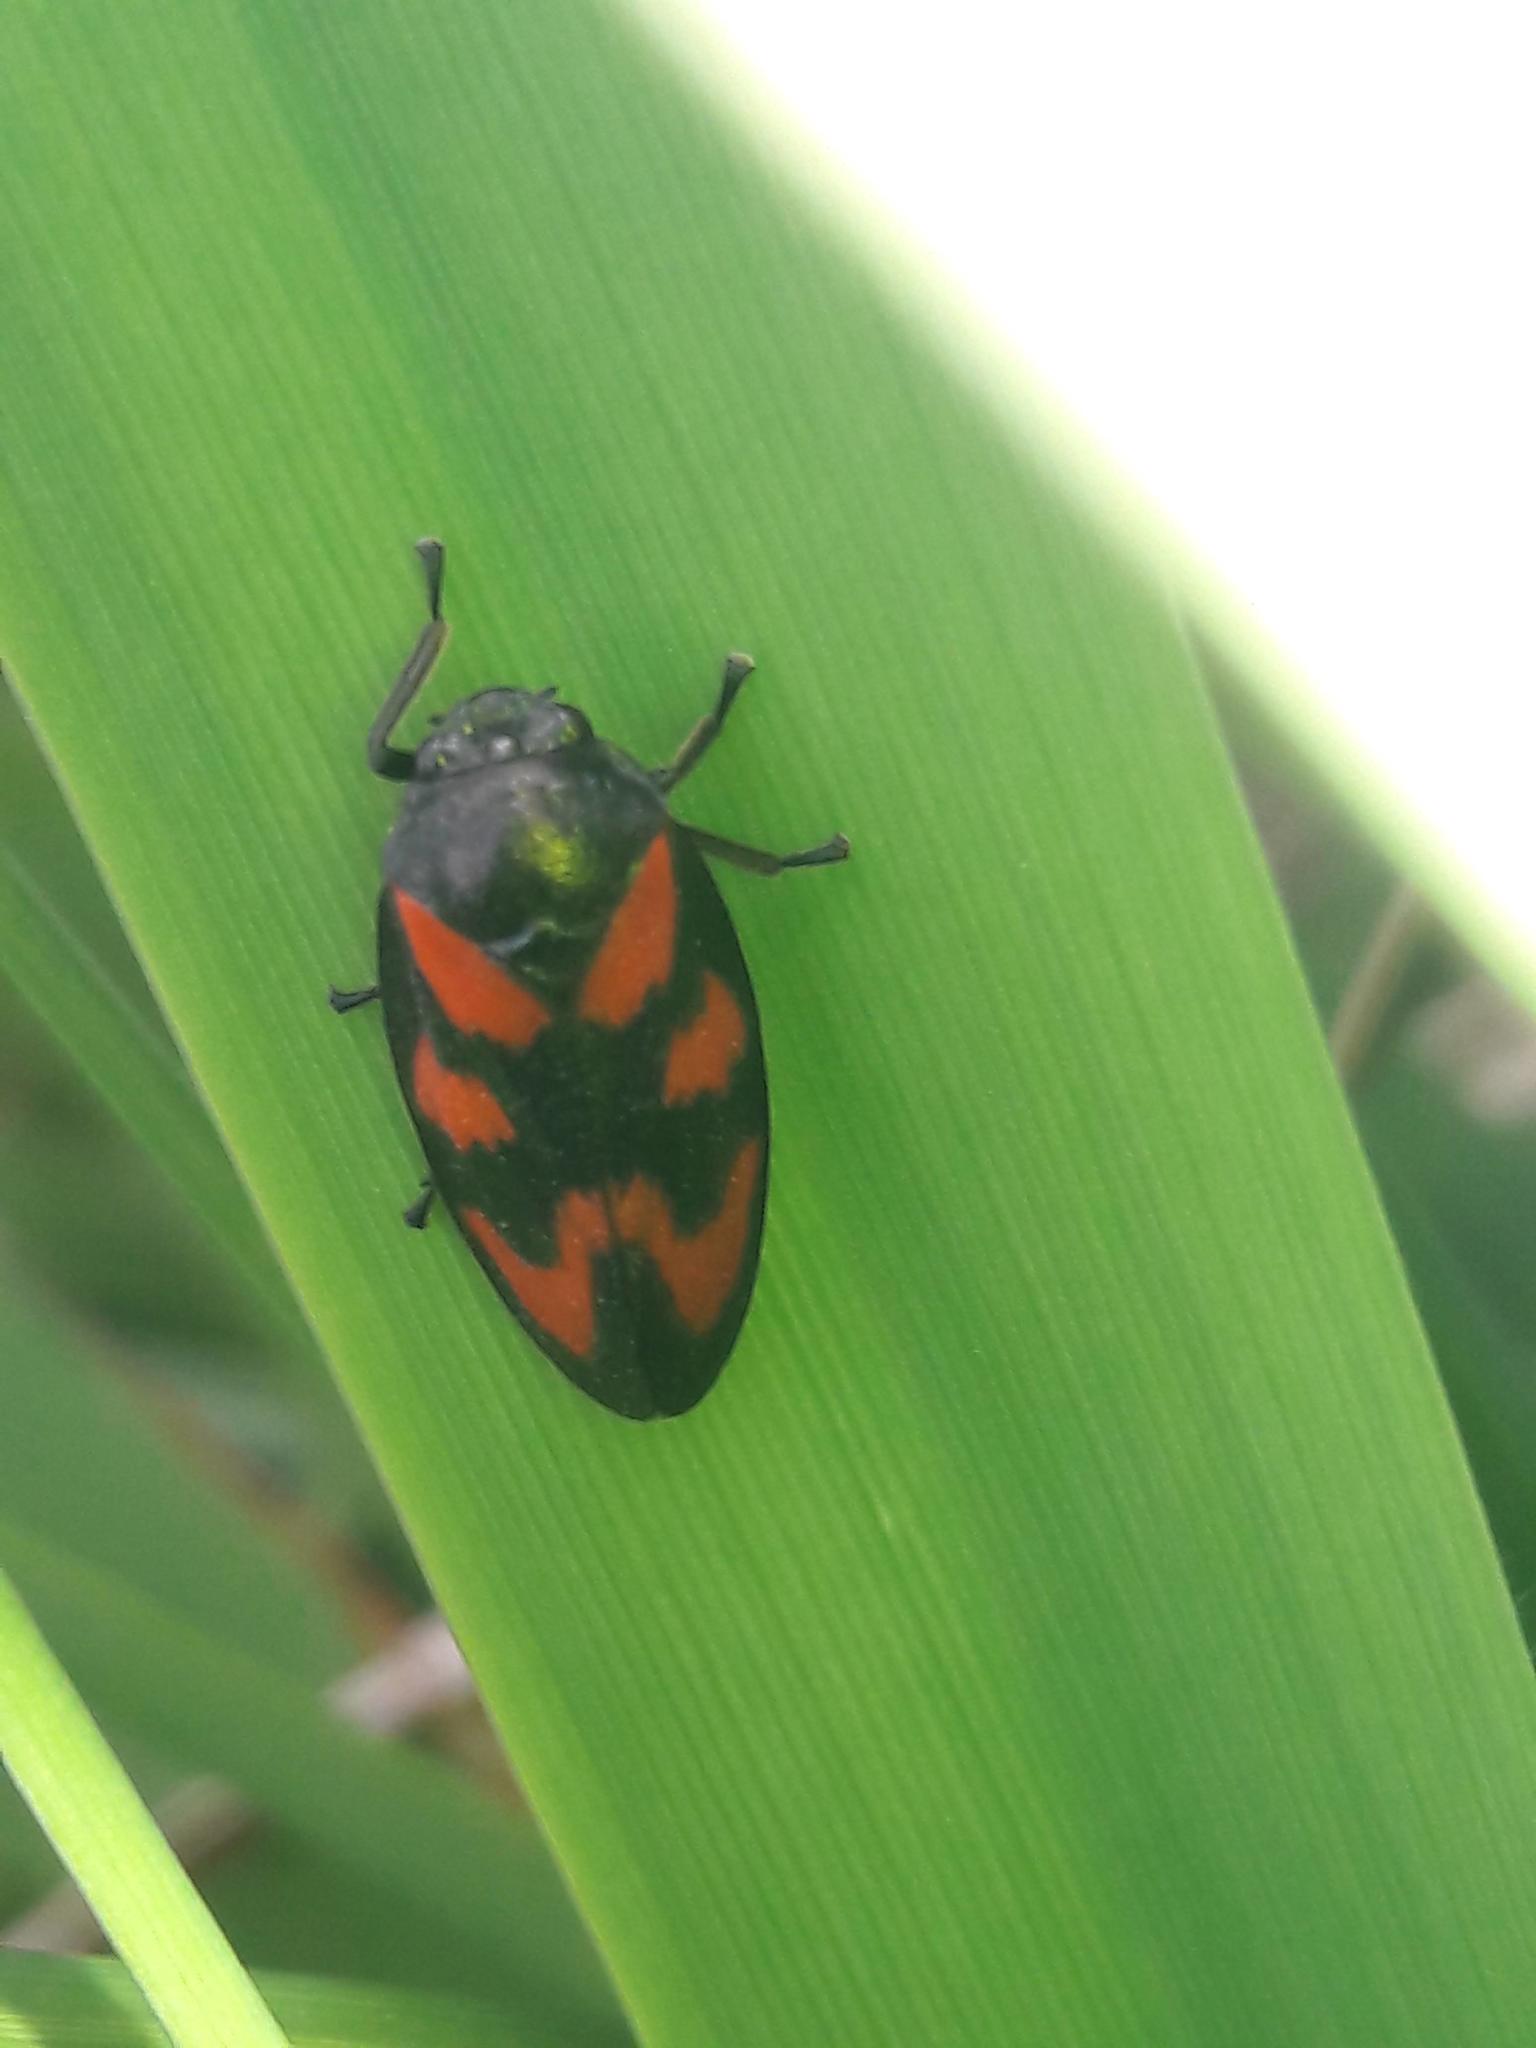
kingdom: Animalia
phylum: Arthropoda
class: Insecta
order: Hemiptera
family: Cercopidae
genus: Cercopis
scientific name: Cercopis vulnerata
